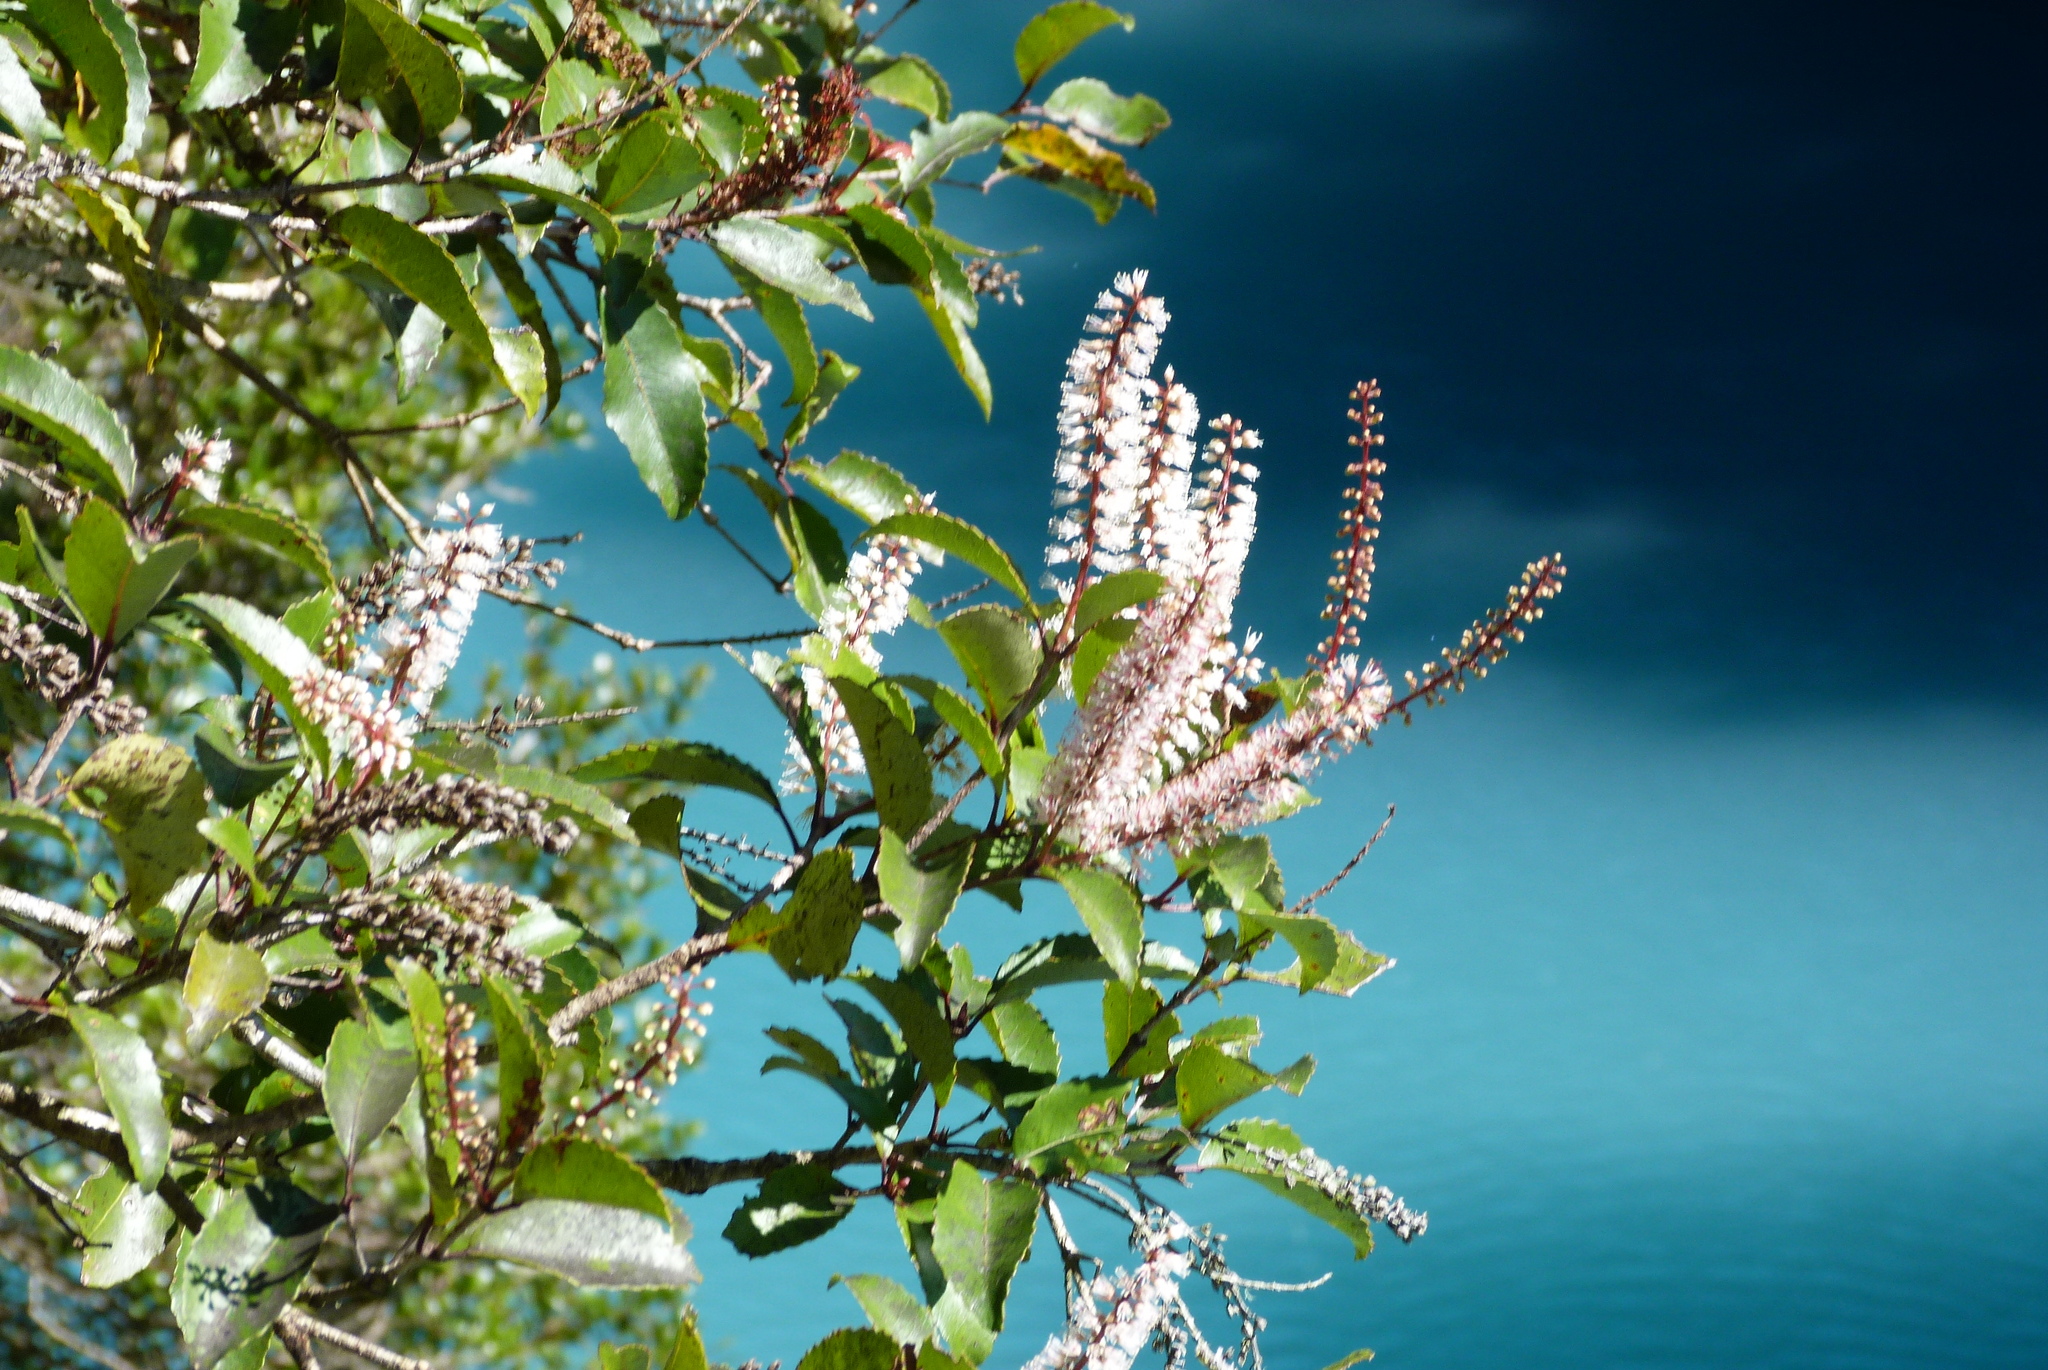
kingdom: Plantae
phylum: Tracheophyta
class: Magnoliopsida
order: Oxalidales
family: Cunoniaceae
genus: Pterophylla
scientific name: Pterophylla racemosa
